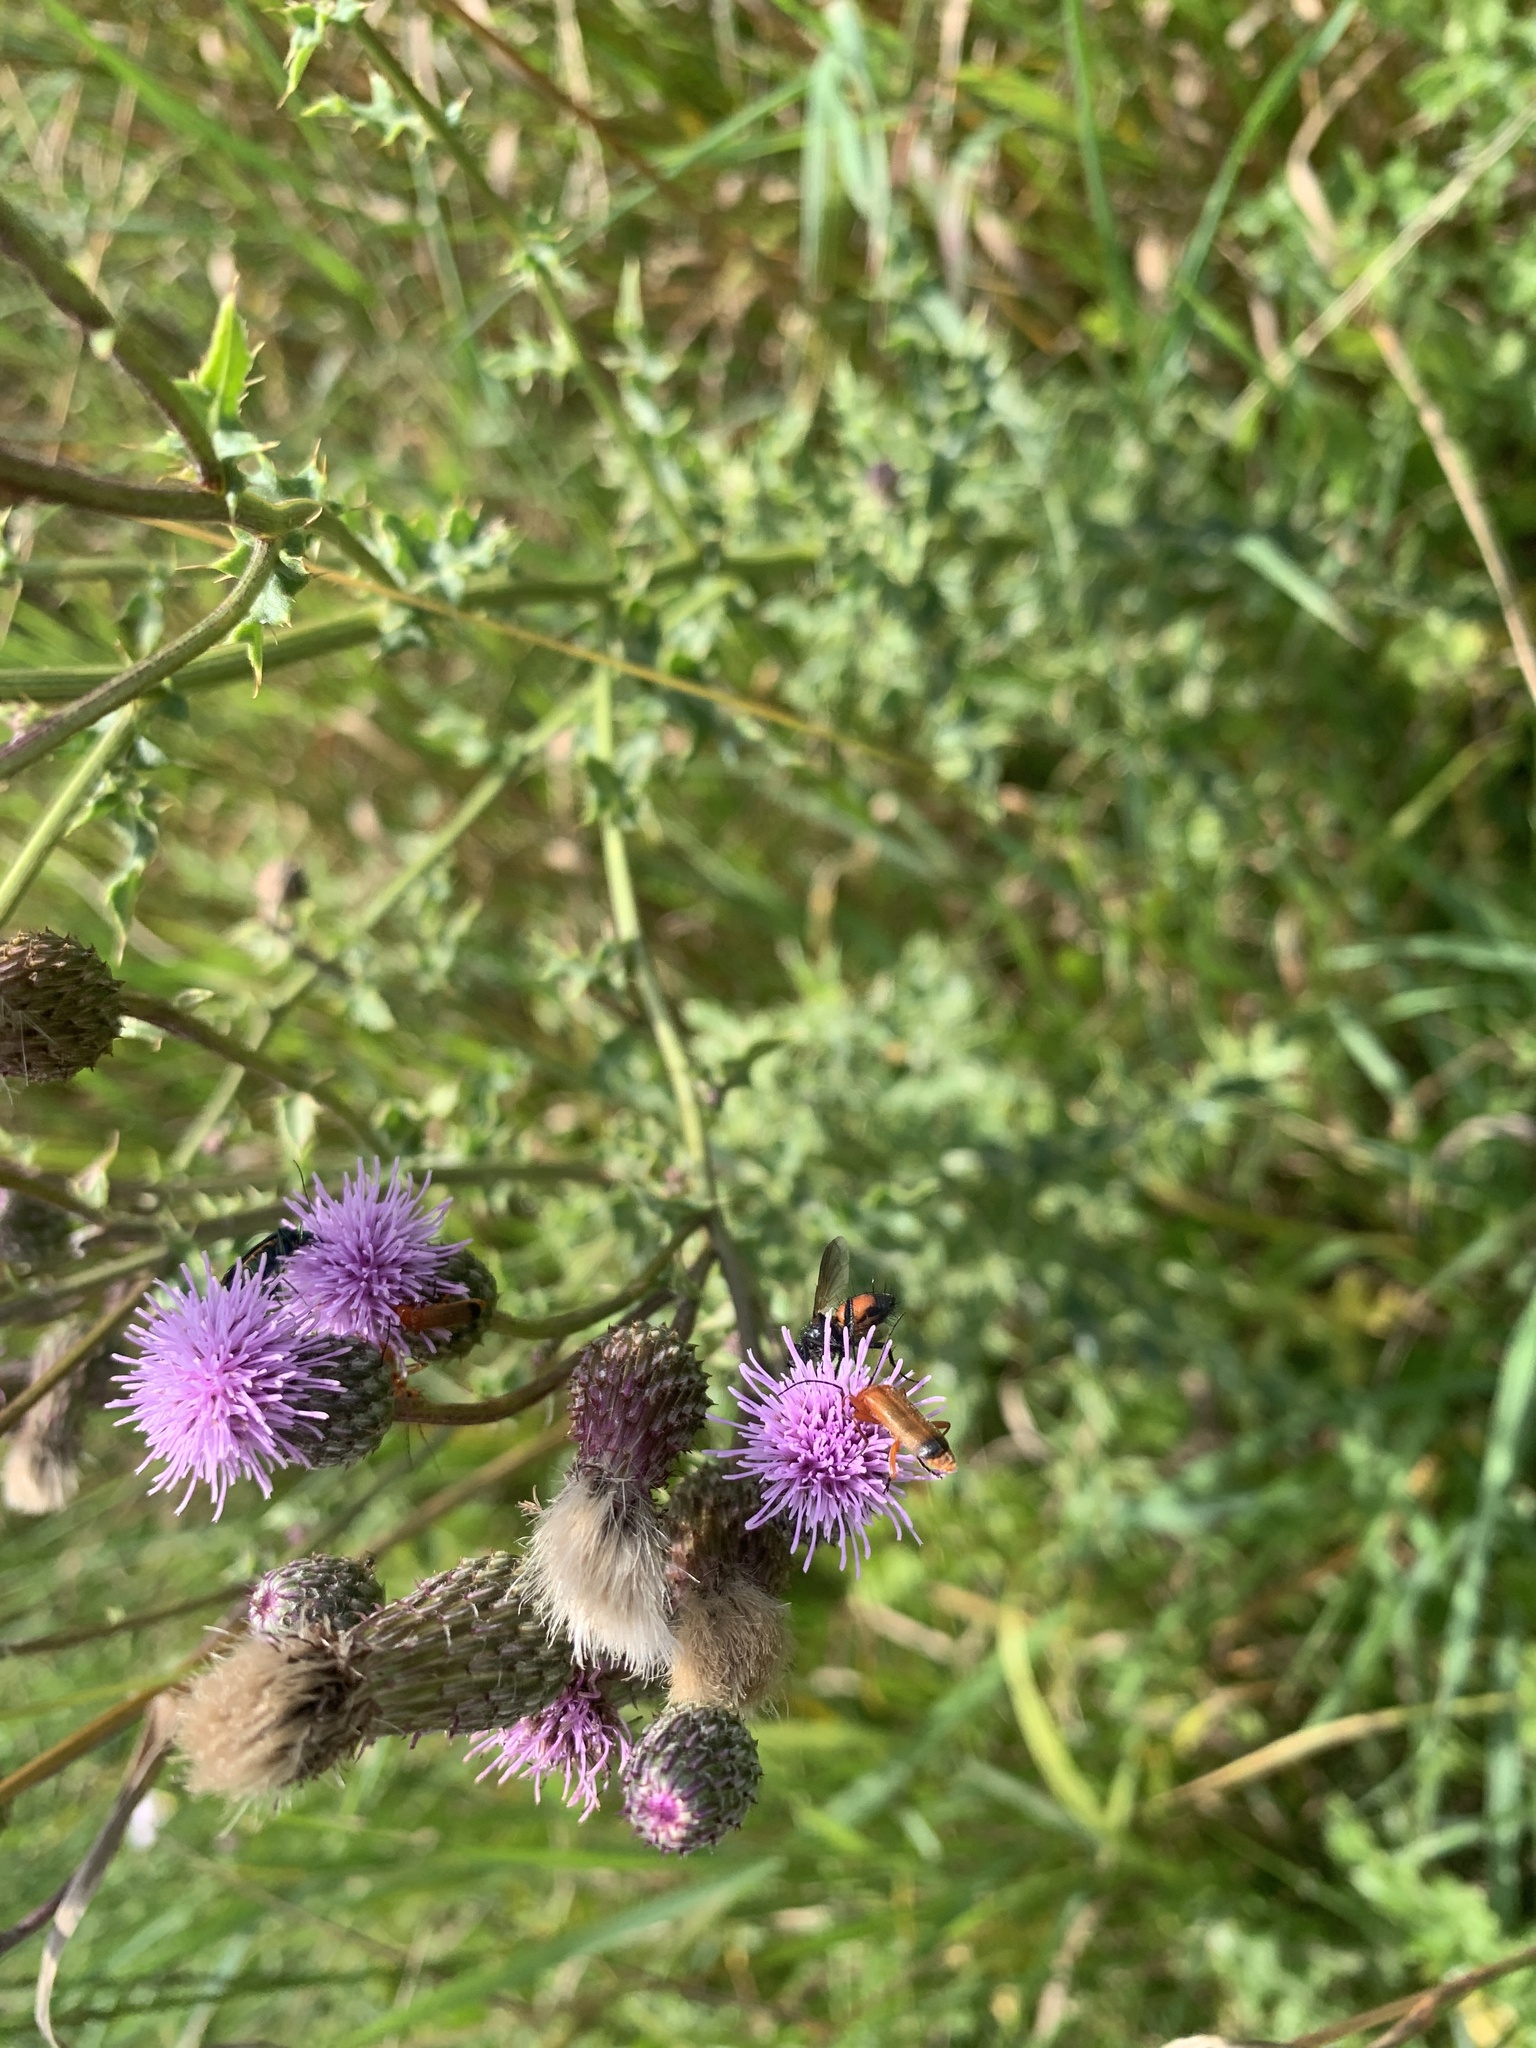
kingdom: Animalia
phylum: Arthropoda
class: Insecta
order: Coleoptera
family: Cantharidae
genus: Rhagonycha
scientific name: Rhagonycha fulva
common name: Common red soldier beetle
